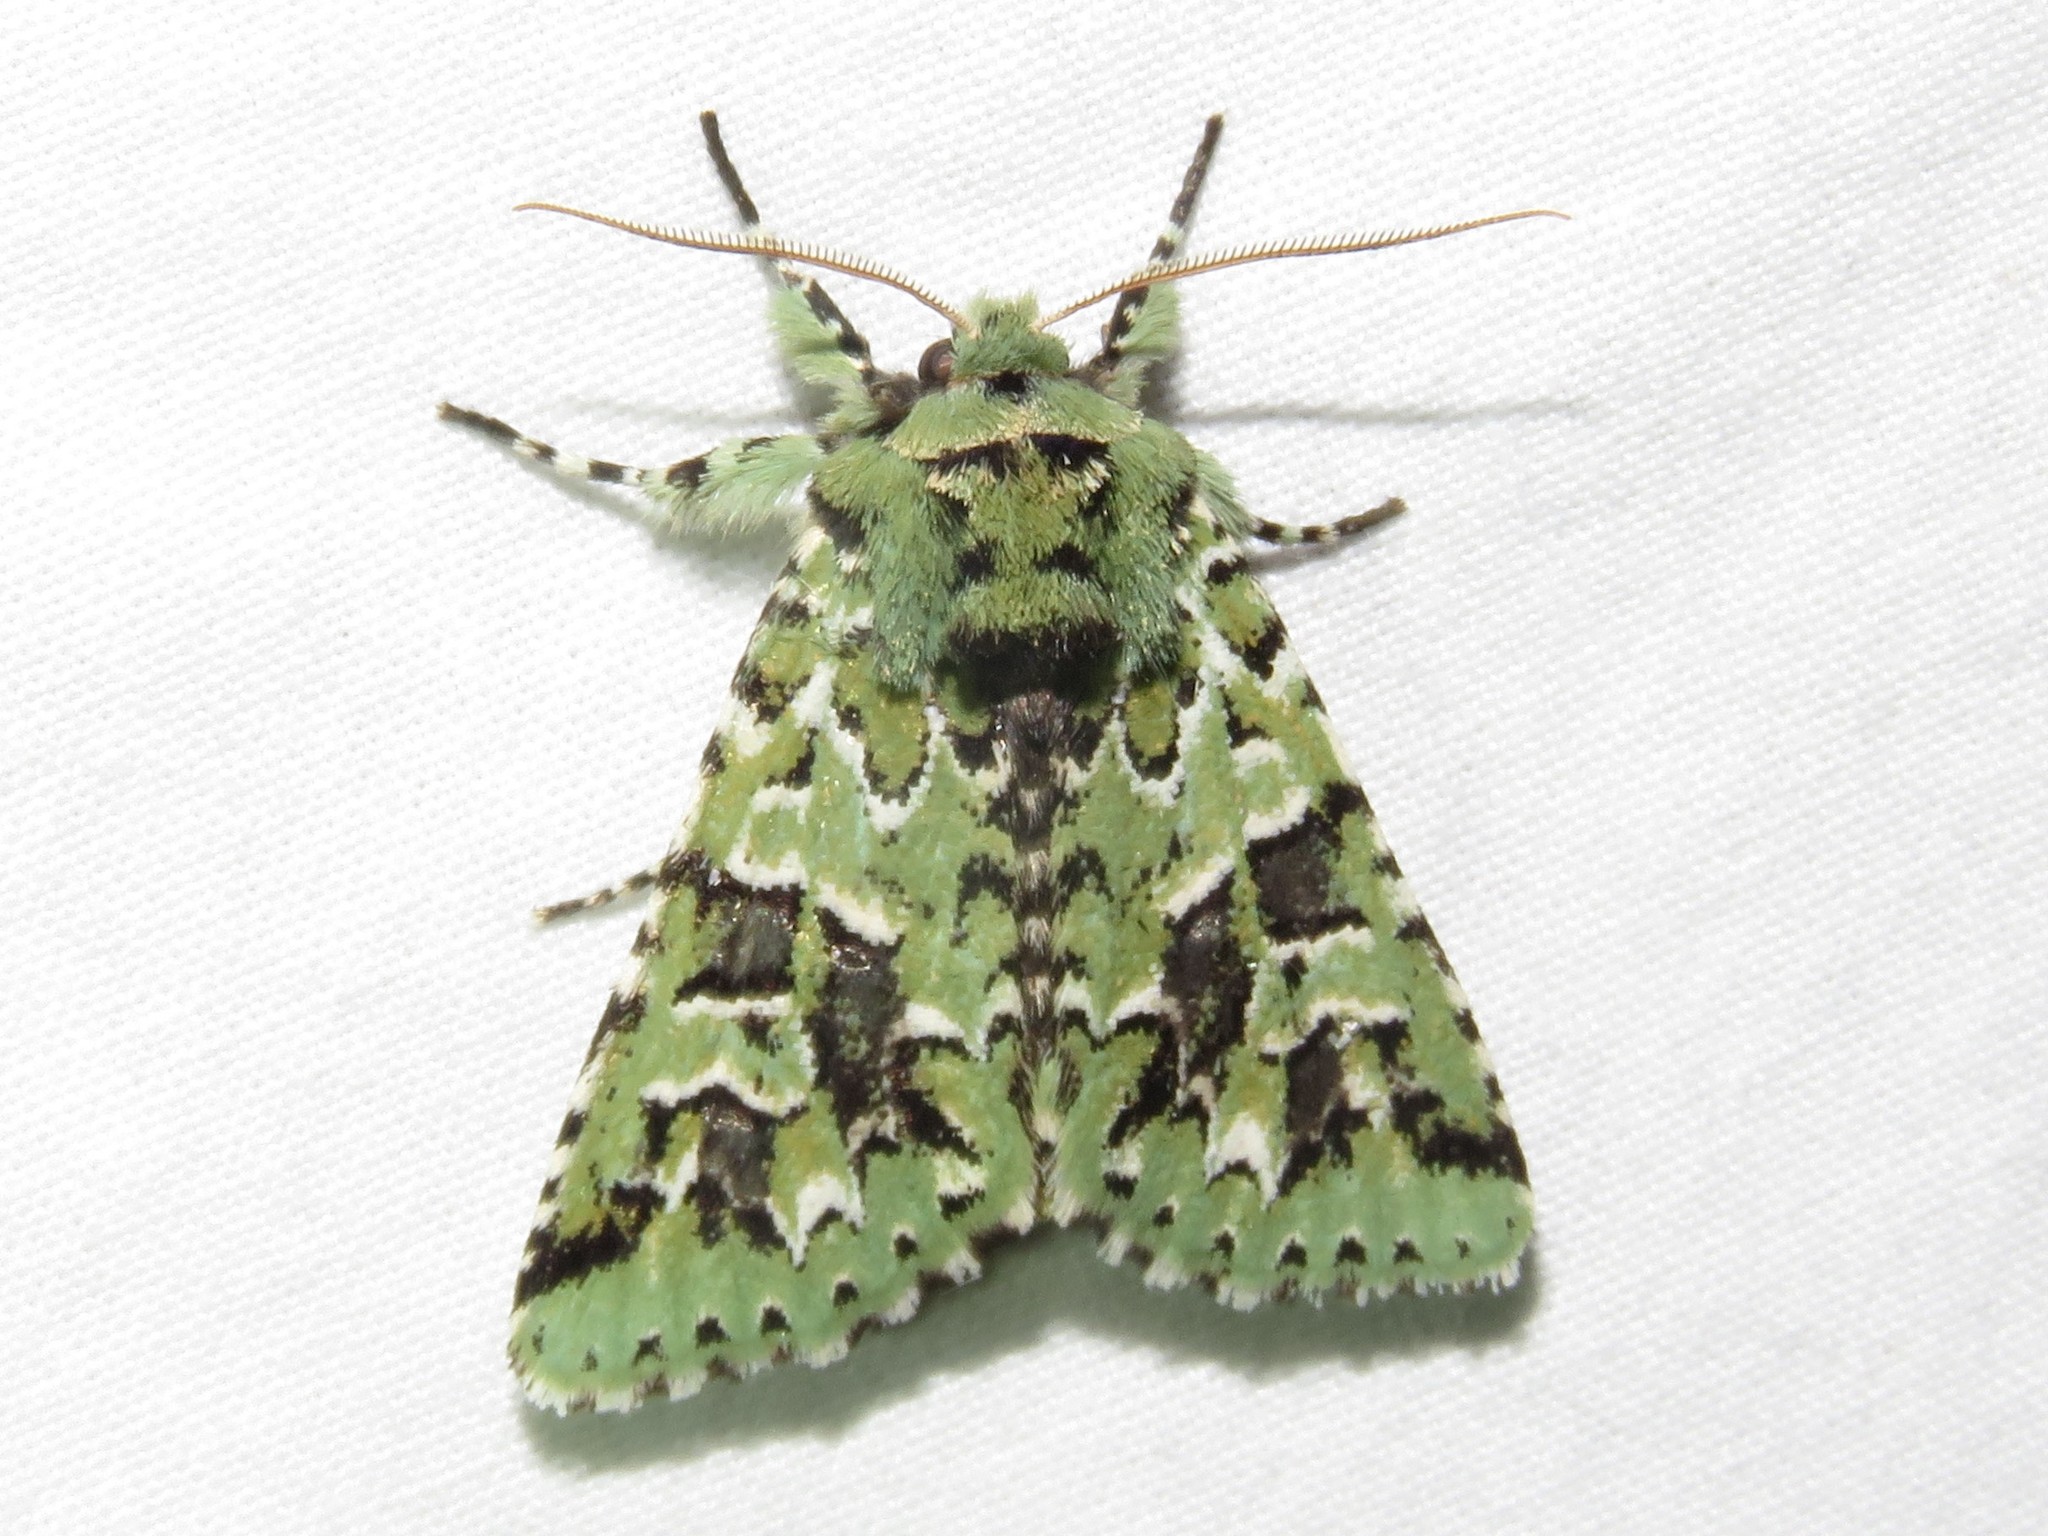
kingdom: Animalia
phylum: Arthropoda
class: Insecta
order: Lepidoptera
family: Noctuidae
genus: Feralia
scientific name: Feralia comstocki
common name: Comstock's sallow
